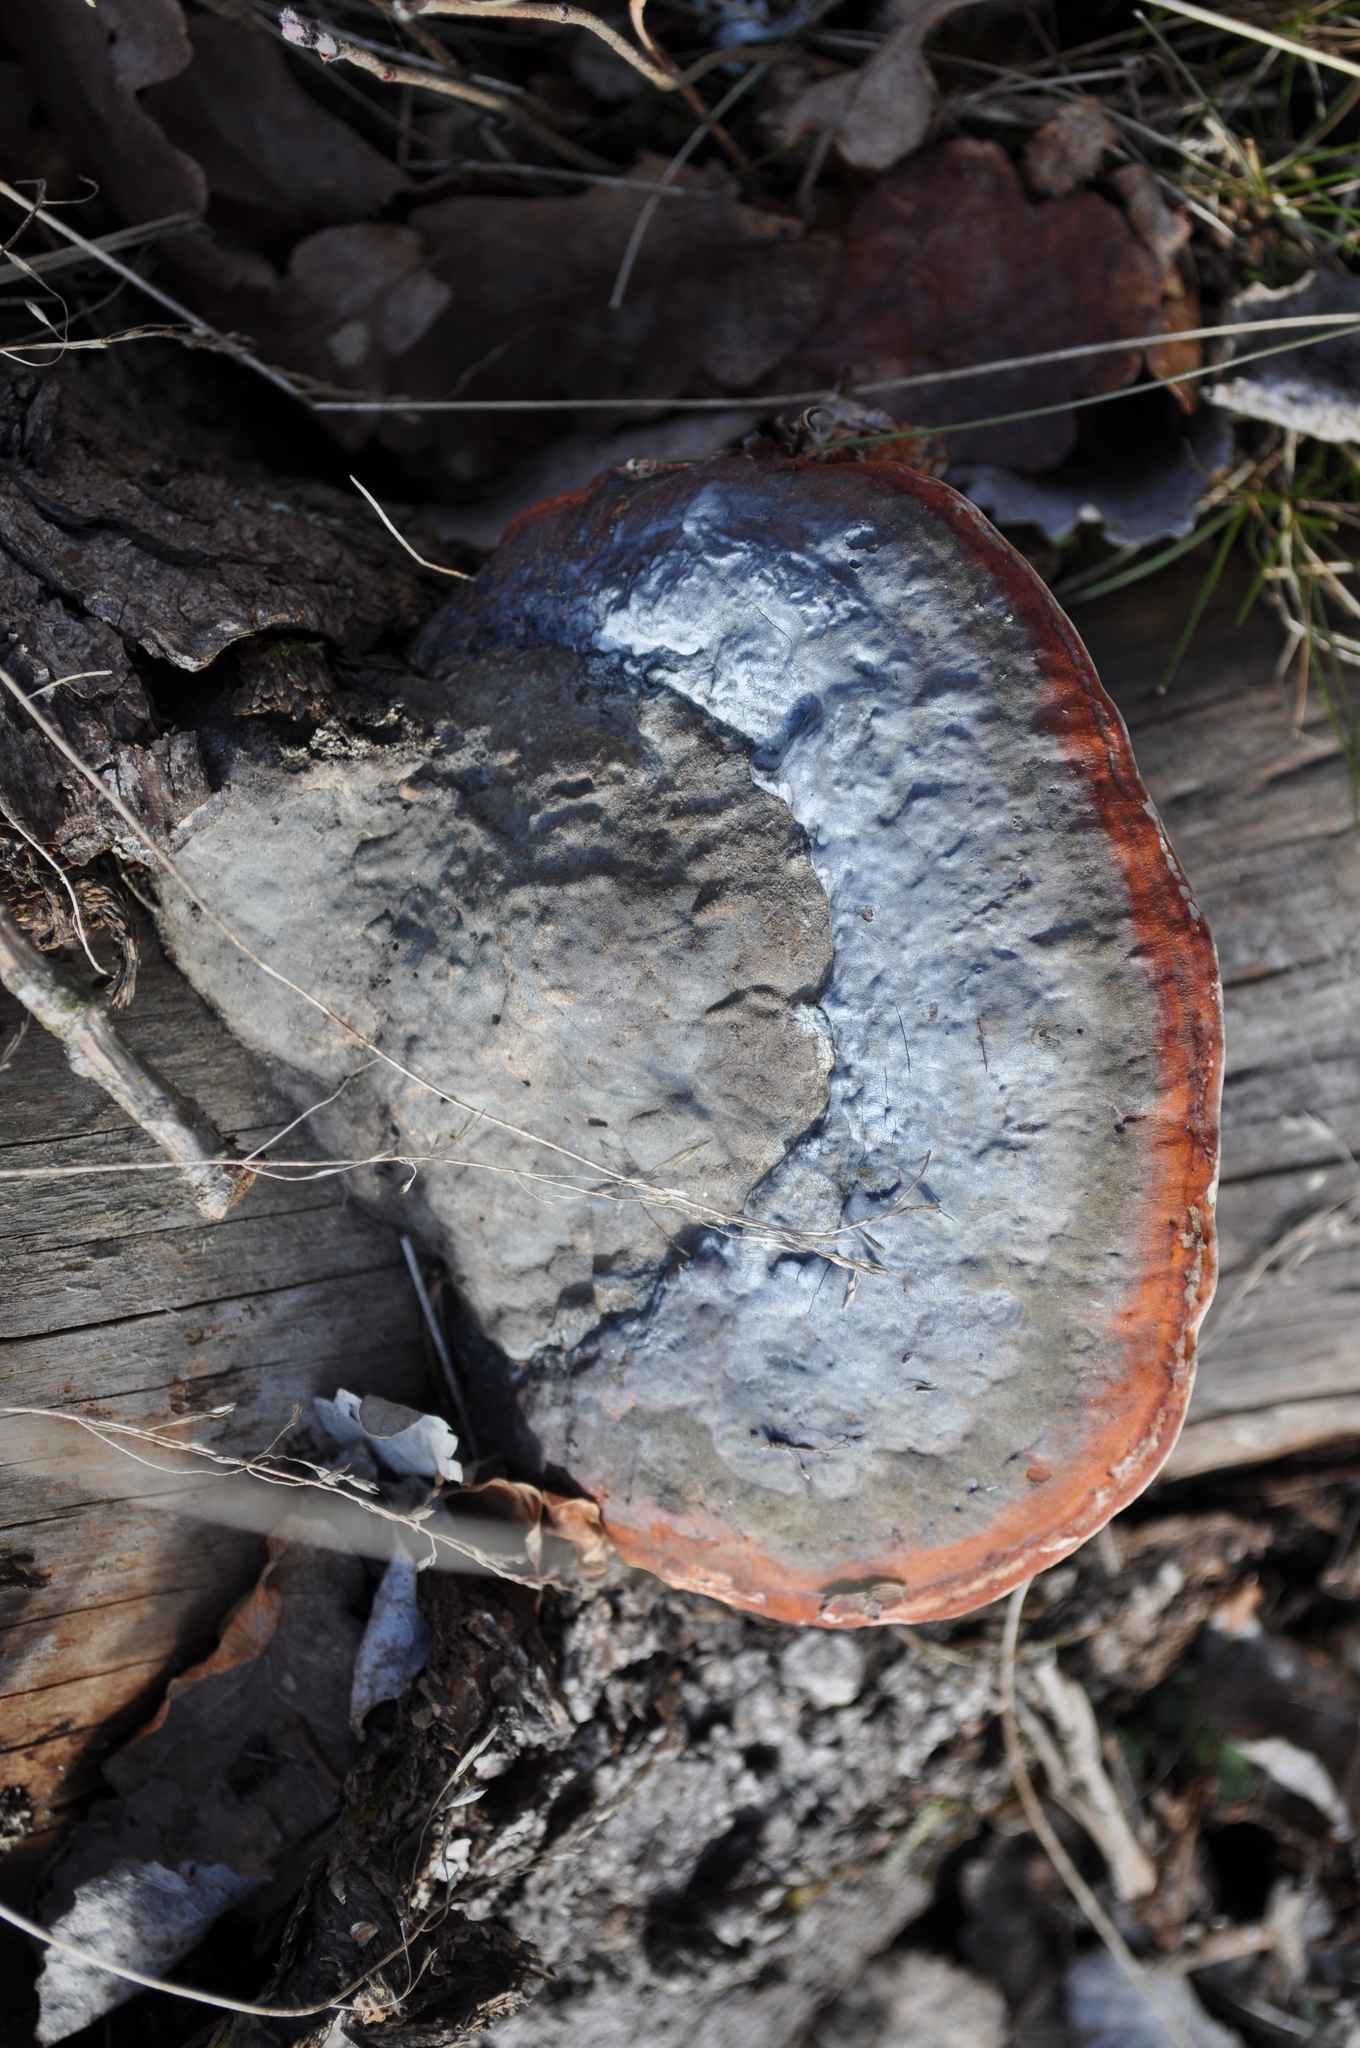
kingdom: Fungi
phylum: Basidiomycota
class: Agaricomycetes
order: Polyporales
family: Fomitopsidaceae
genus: Fomitopsis
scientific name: Fomitopsis pinicola
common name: Red-belted bracket
